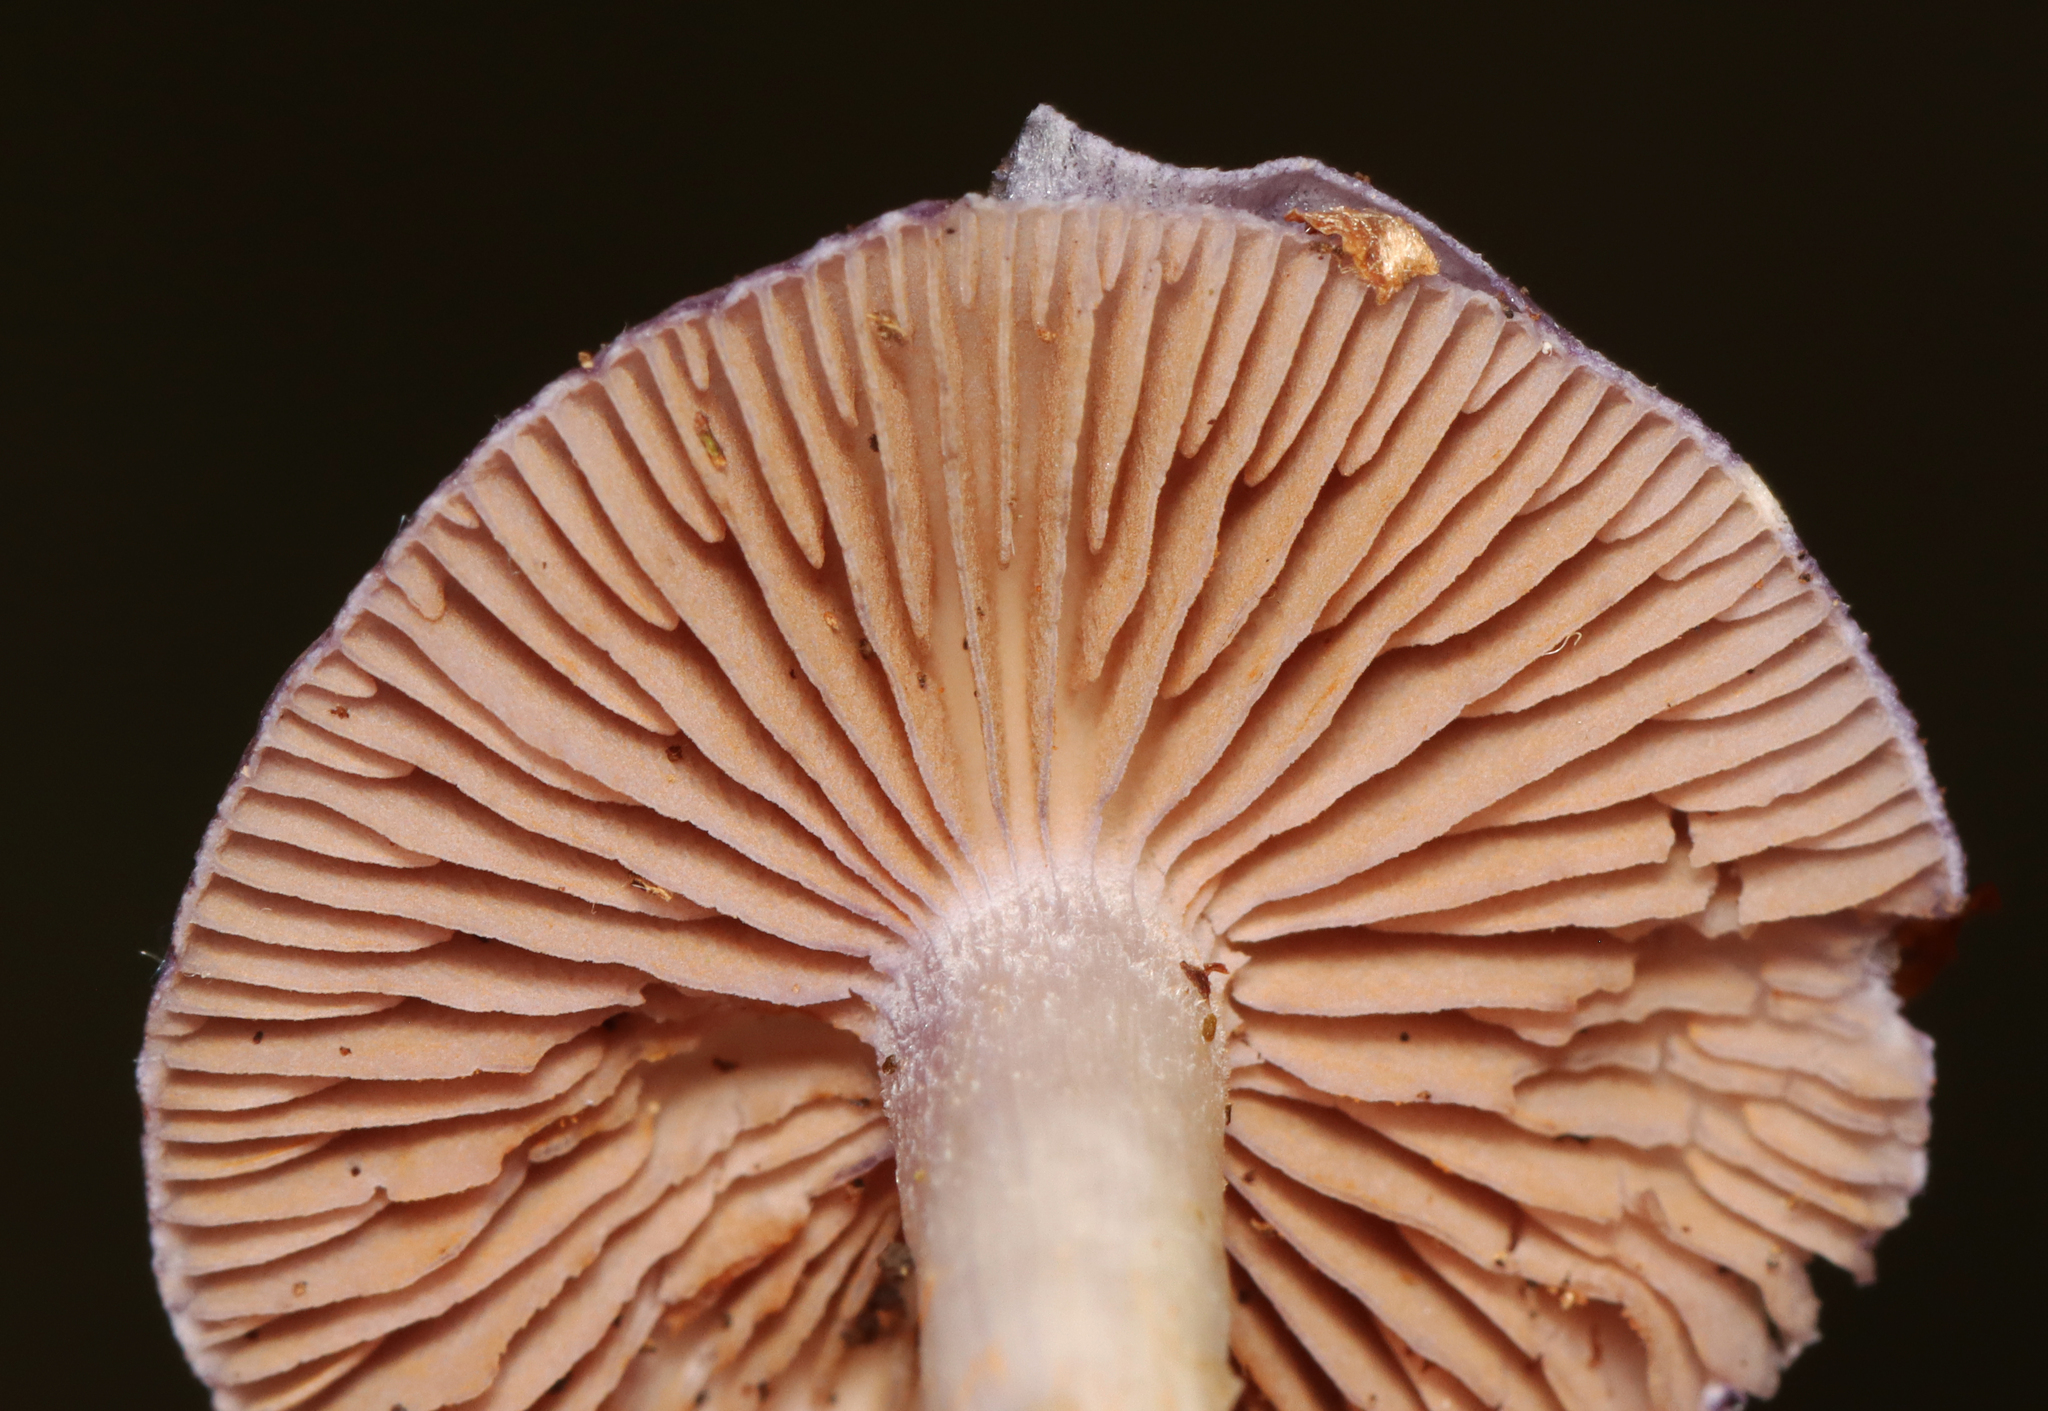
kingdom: Fungi
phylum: Basidiomycota
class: Agaricomycetes
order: Agaricales
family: Cortinariaceae
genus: Cortinarius
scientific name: Cortinarius iodes
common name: Viscid violet cort
